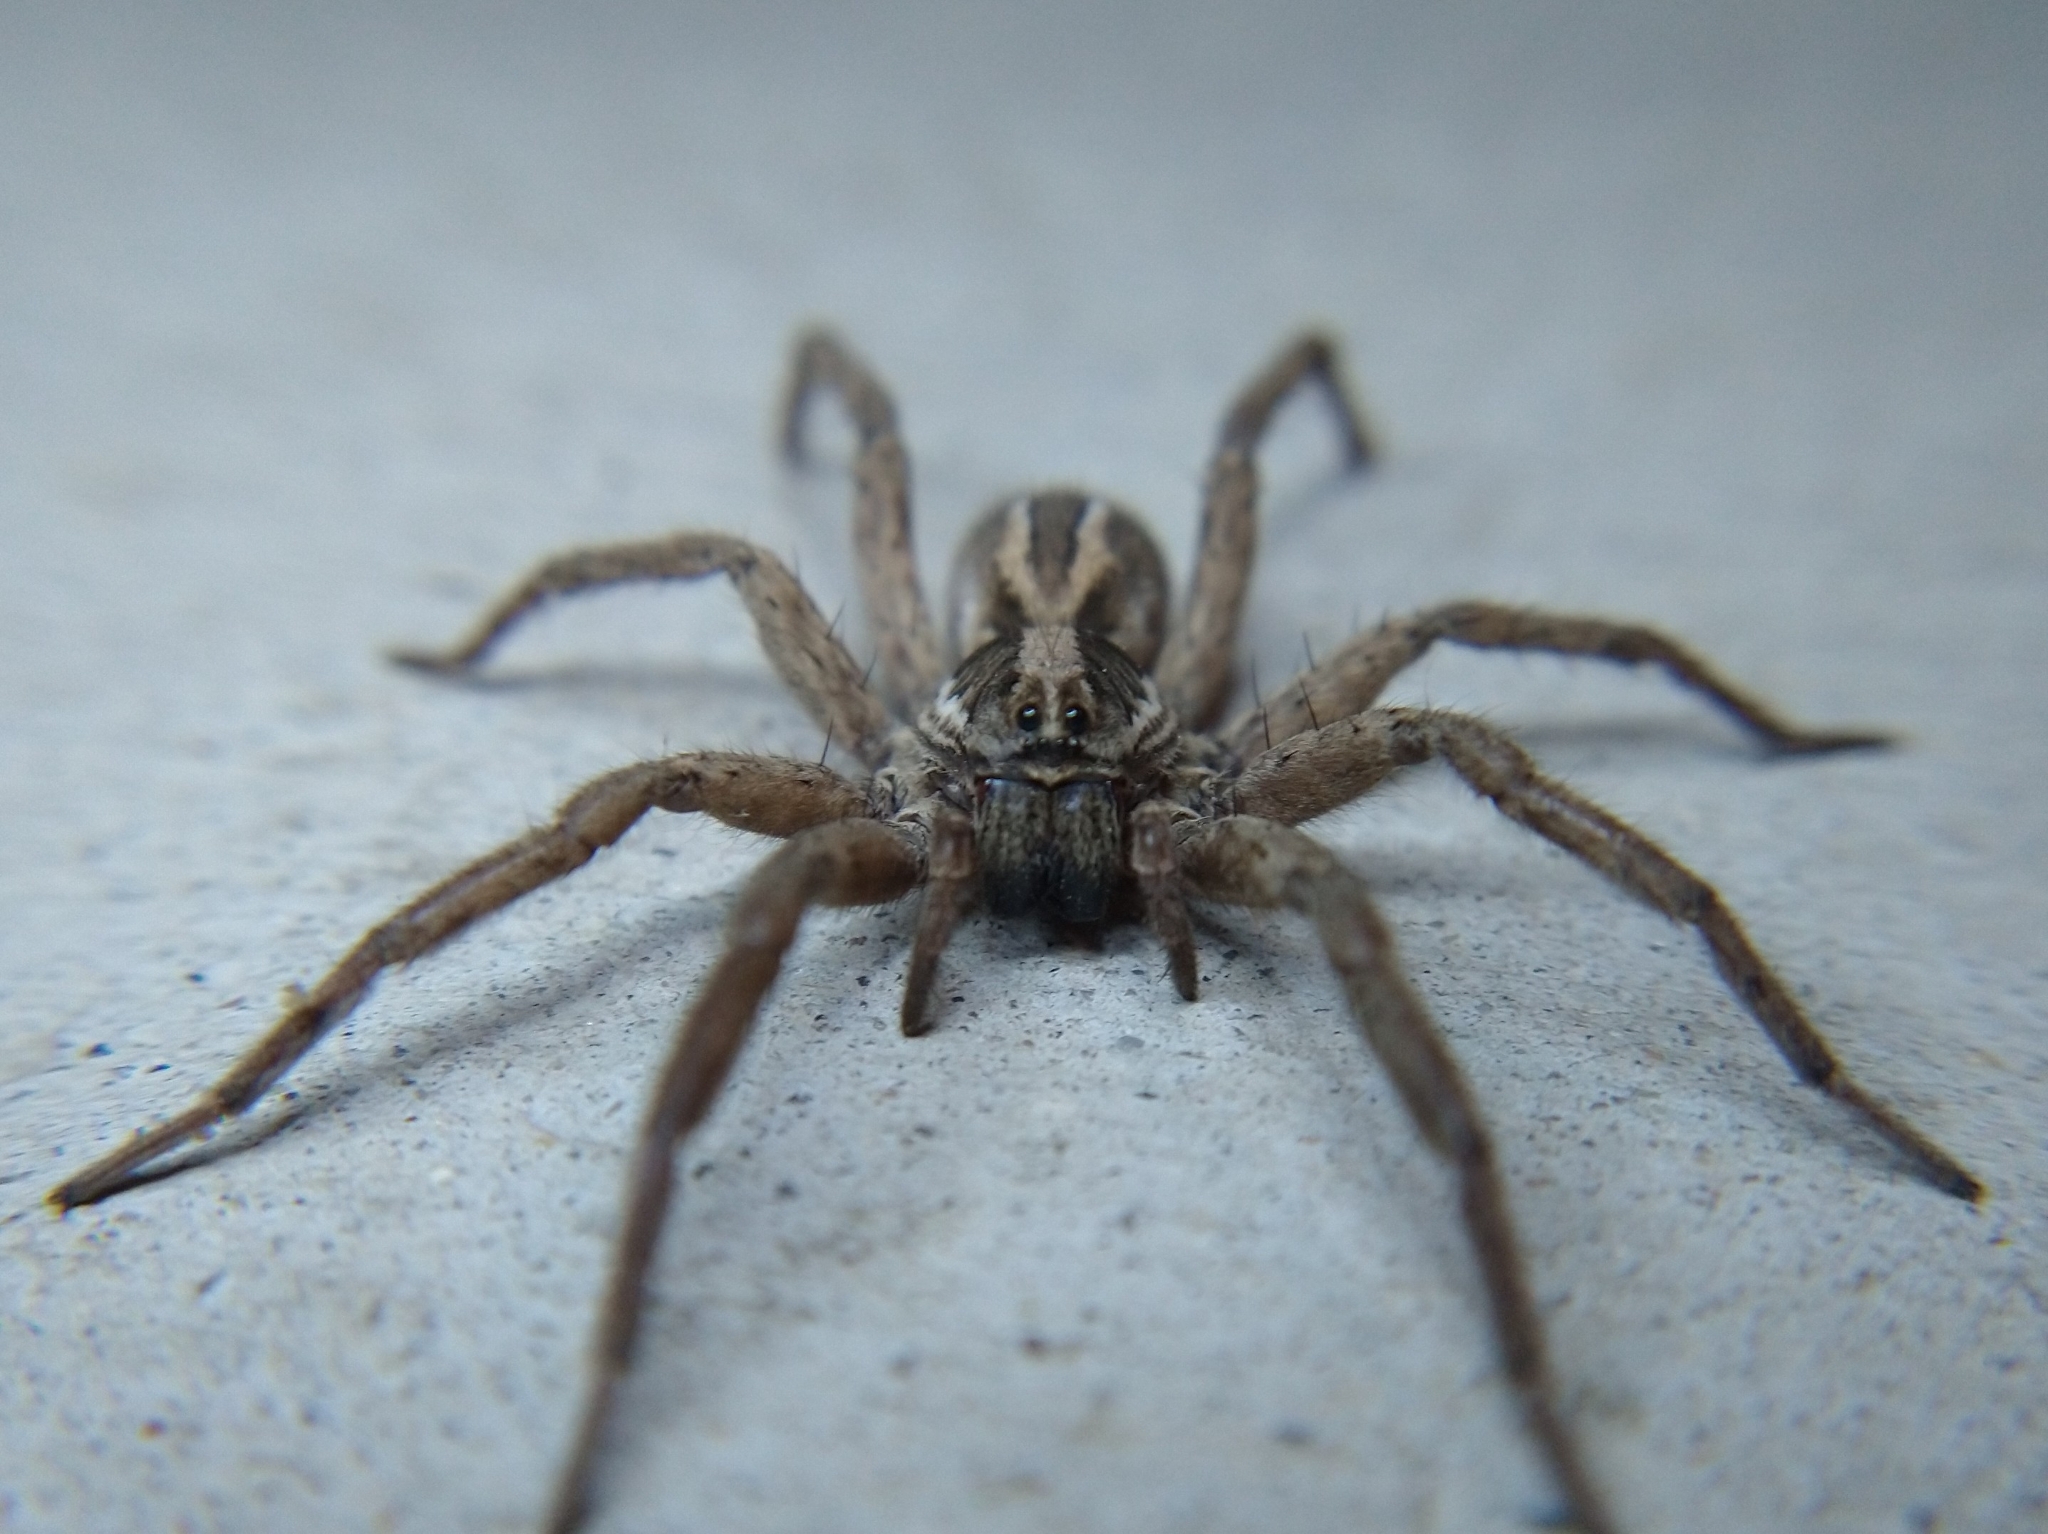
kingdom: Animalia
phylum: Arthropoda
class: Arachnida
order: Araneae
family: Lycosidae
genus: Schizocosa
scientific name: Schizocosa mccooki
